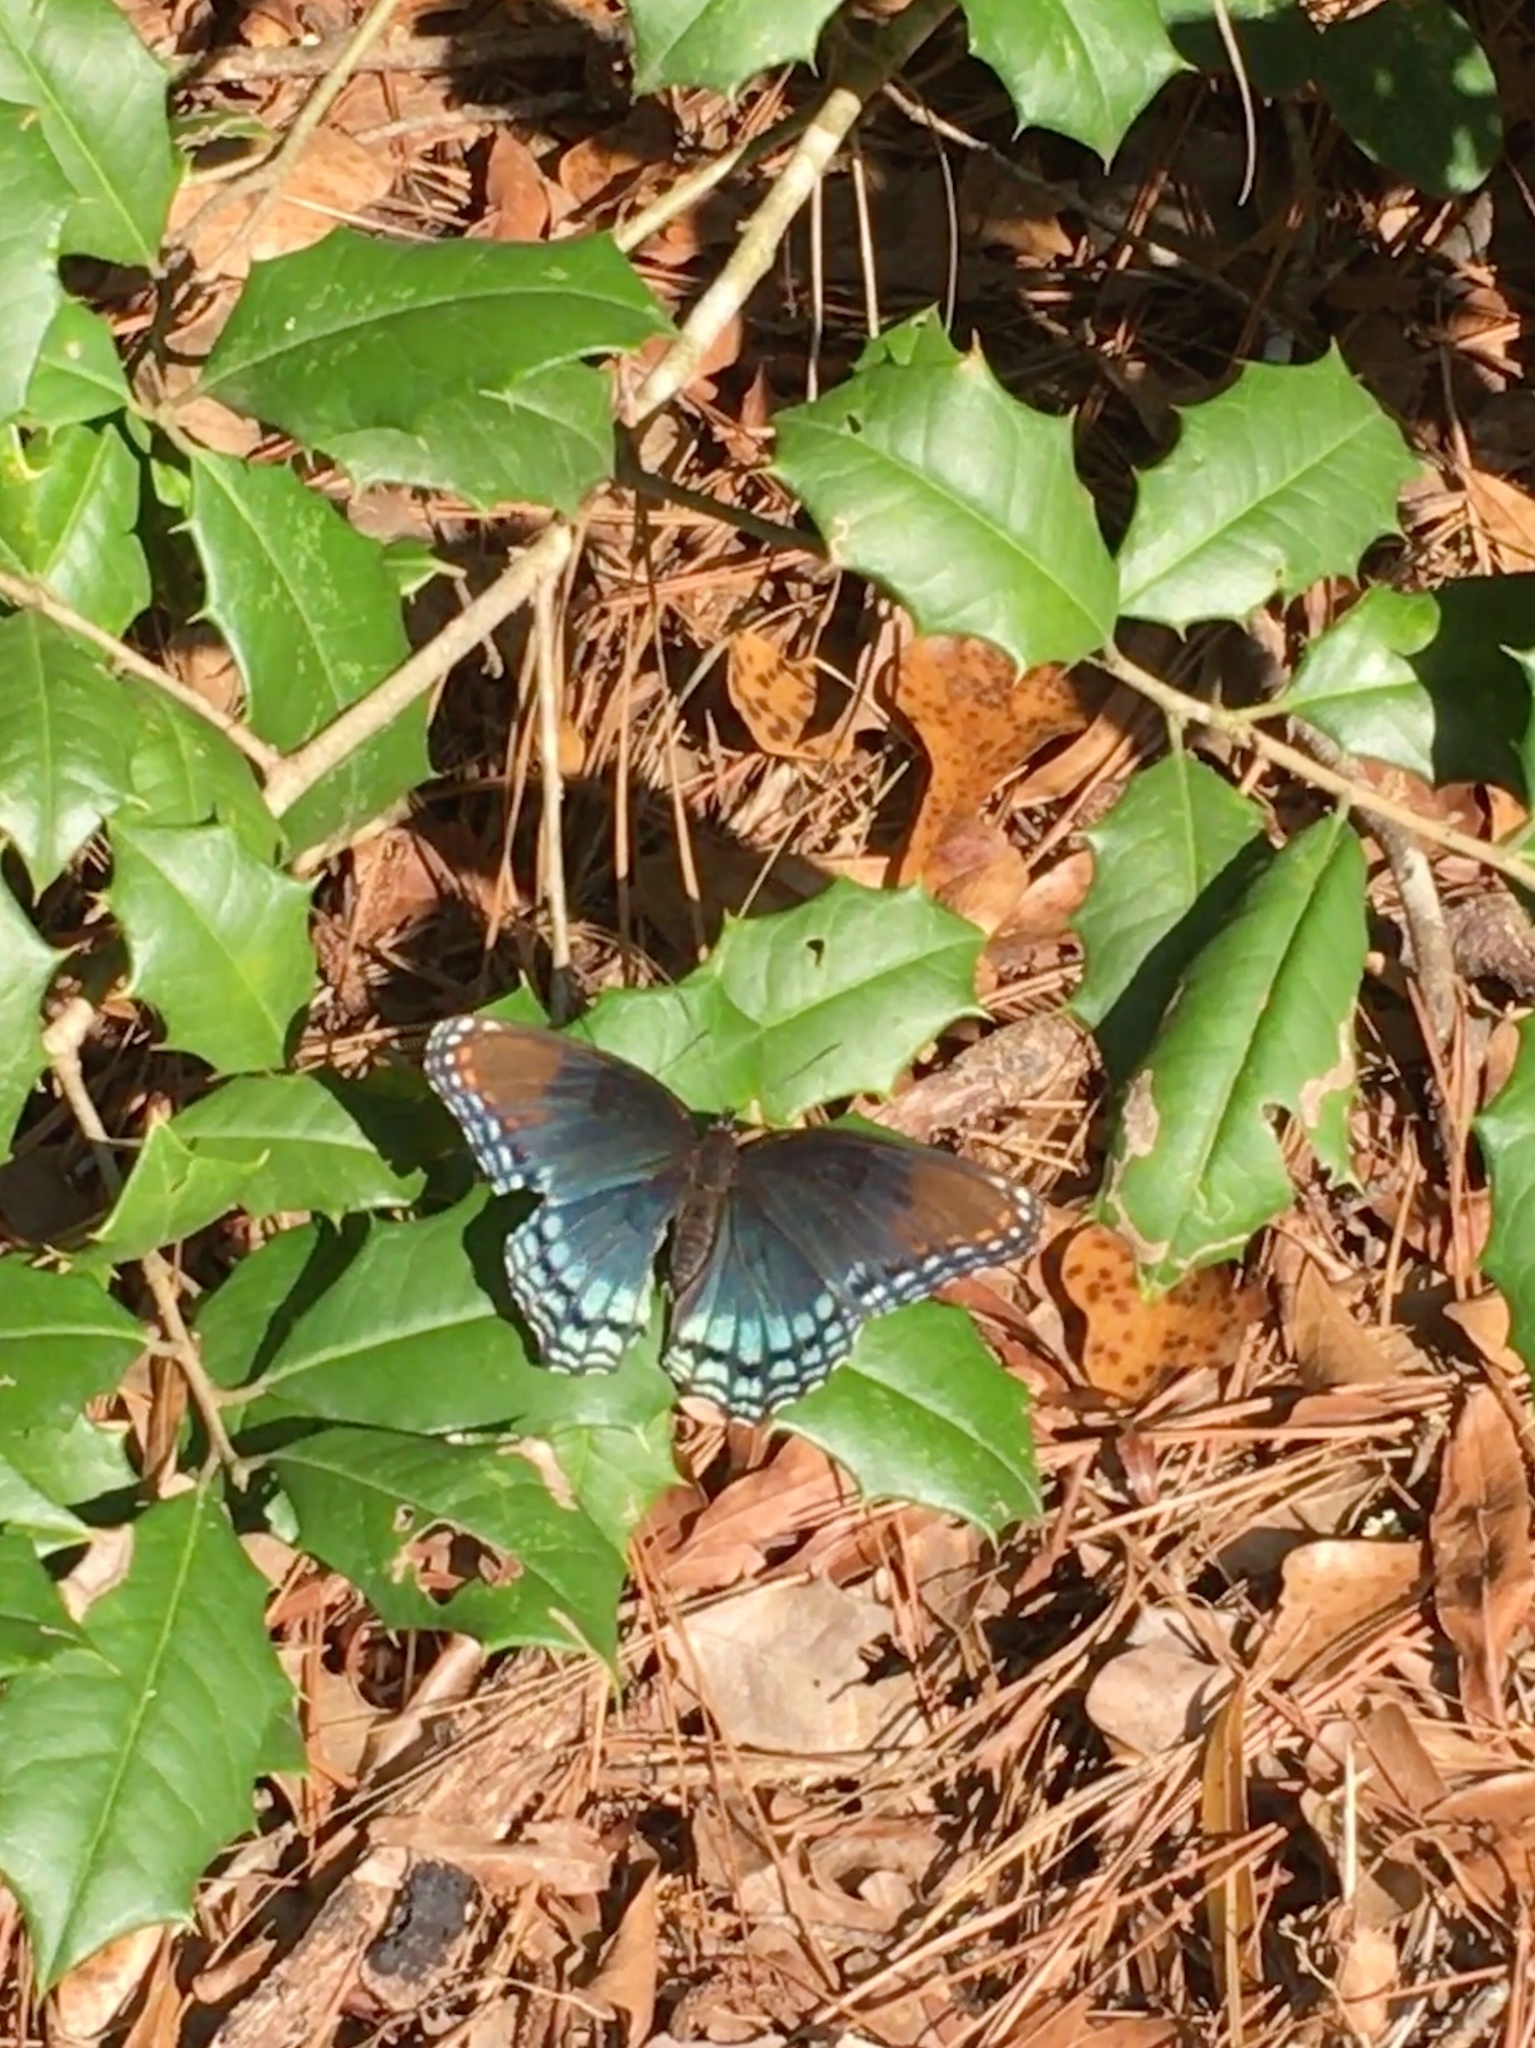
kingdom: Animalia
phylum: Arthropoda
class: Insecta
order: Lepidoptera
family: Nymphalidae
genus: Limenitis
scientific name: Limenitis astyanax
